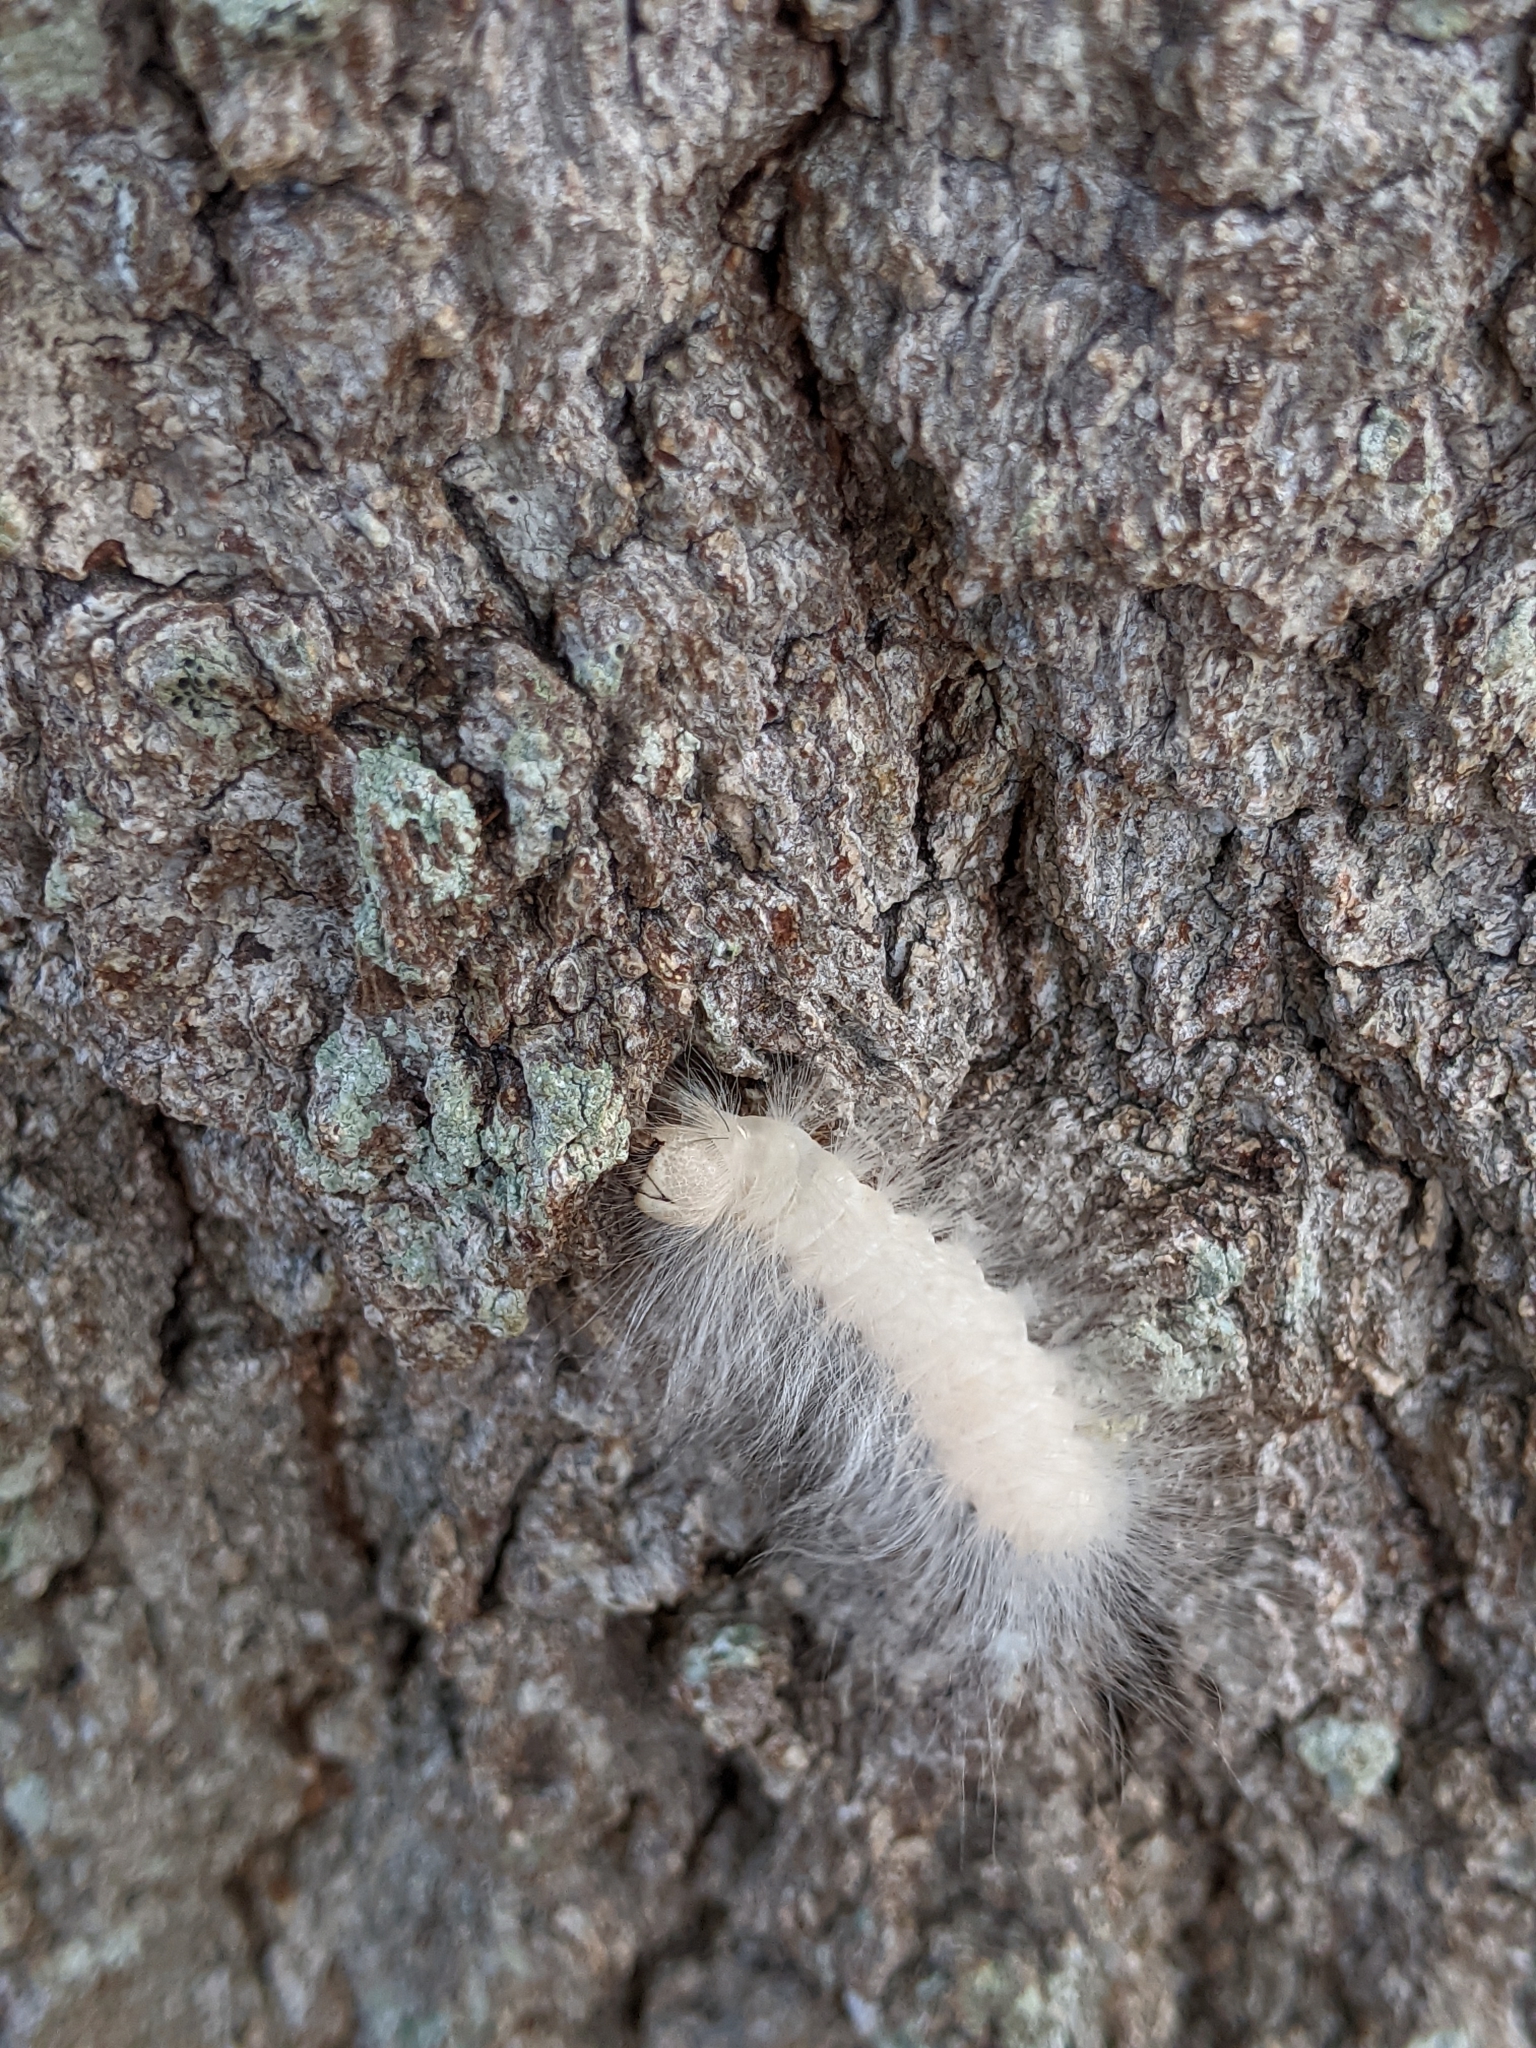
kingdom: Animalia
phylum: Arthropoda
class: Insecta
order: Lepidoptera
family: Noctuidae
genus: Charadra
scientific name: Charadra deridens
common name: Marbled tuffet
